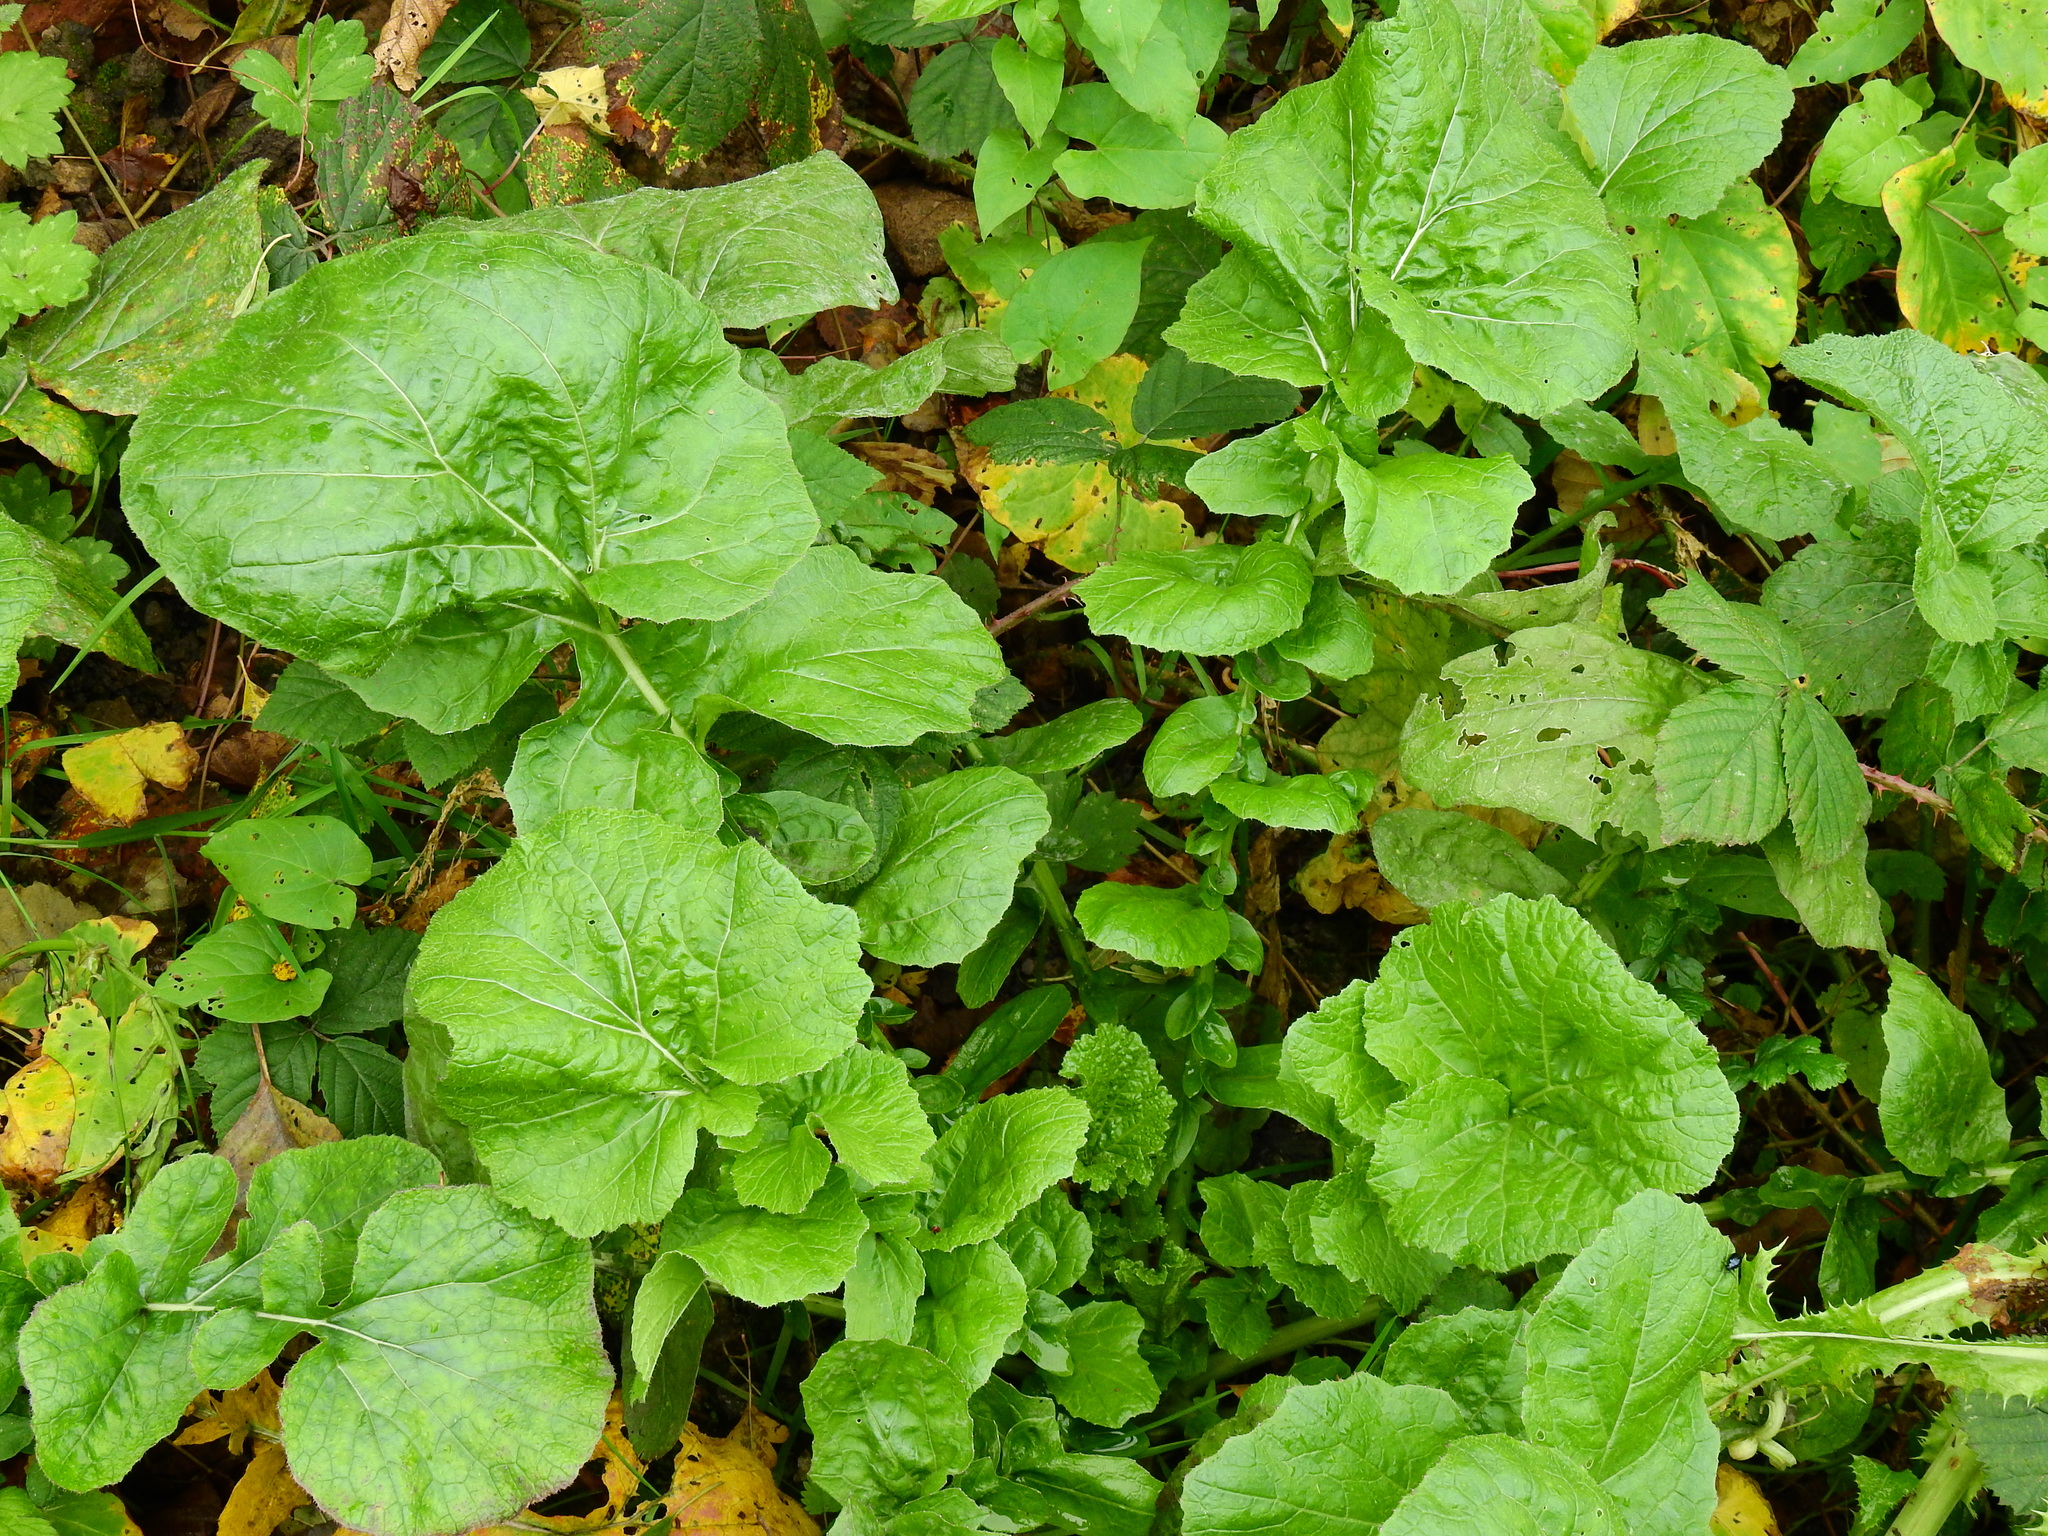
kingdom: Plantae
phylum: Tracheophyta
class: Magnoliopsida
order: Asterales
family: Asteraceae
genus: Lapsana
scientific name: Lapsana communis
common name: Nipplewort
